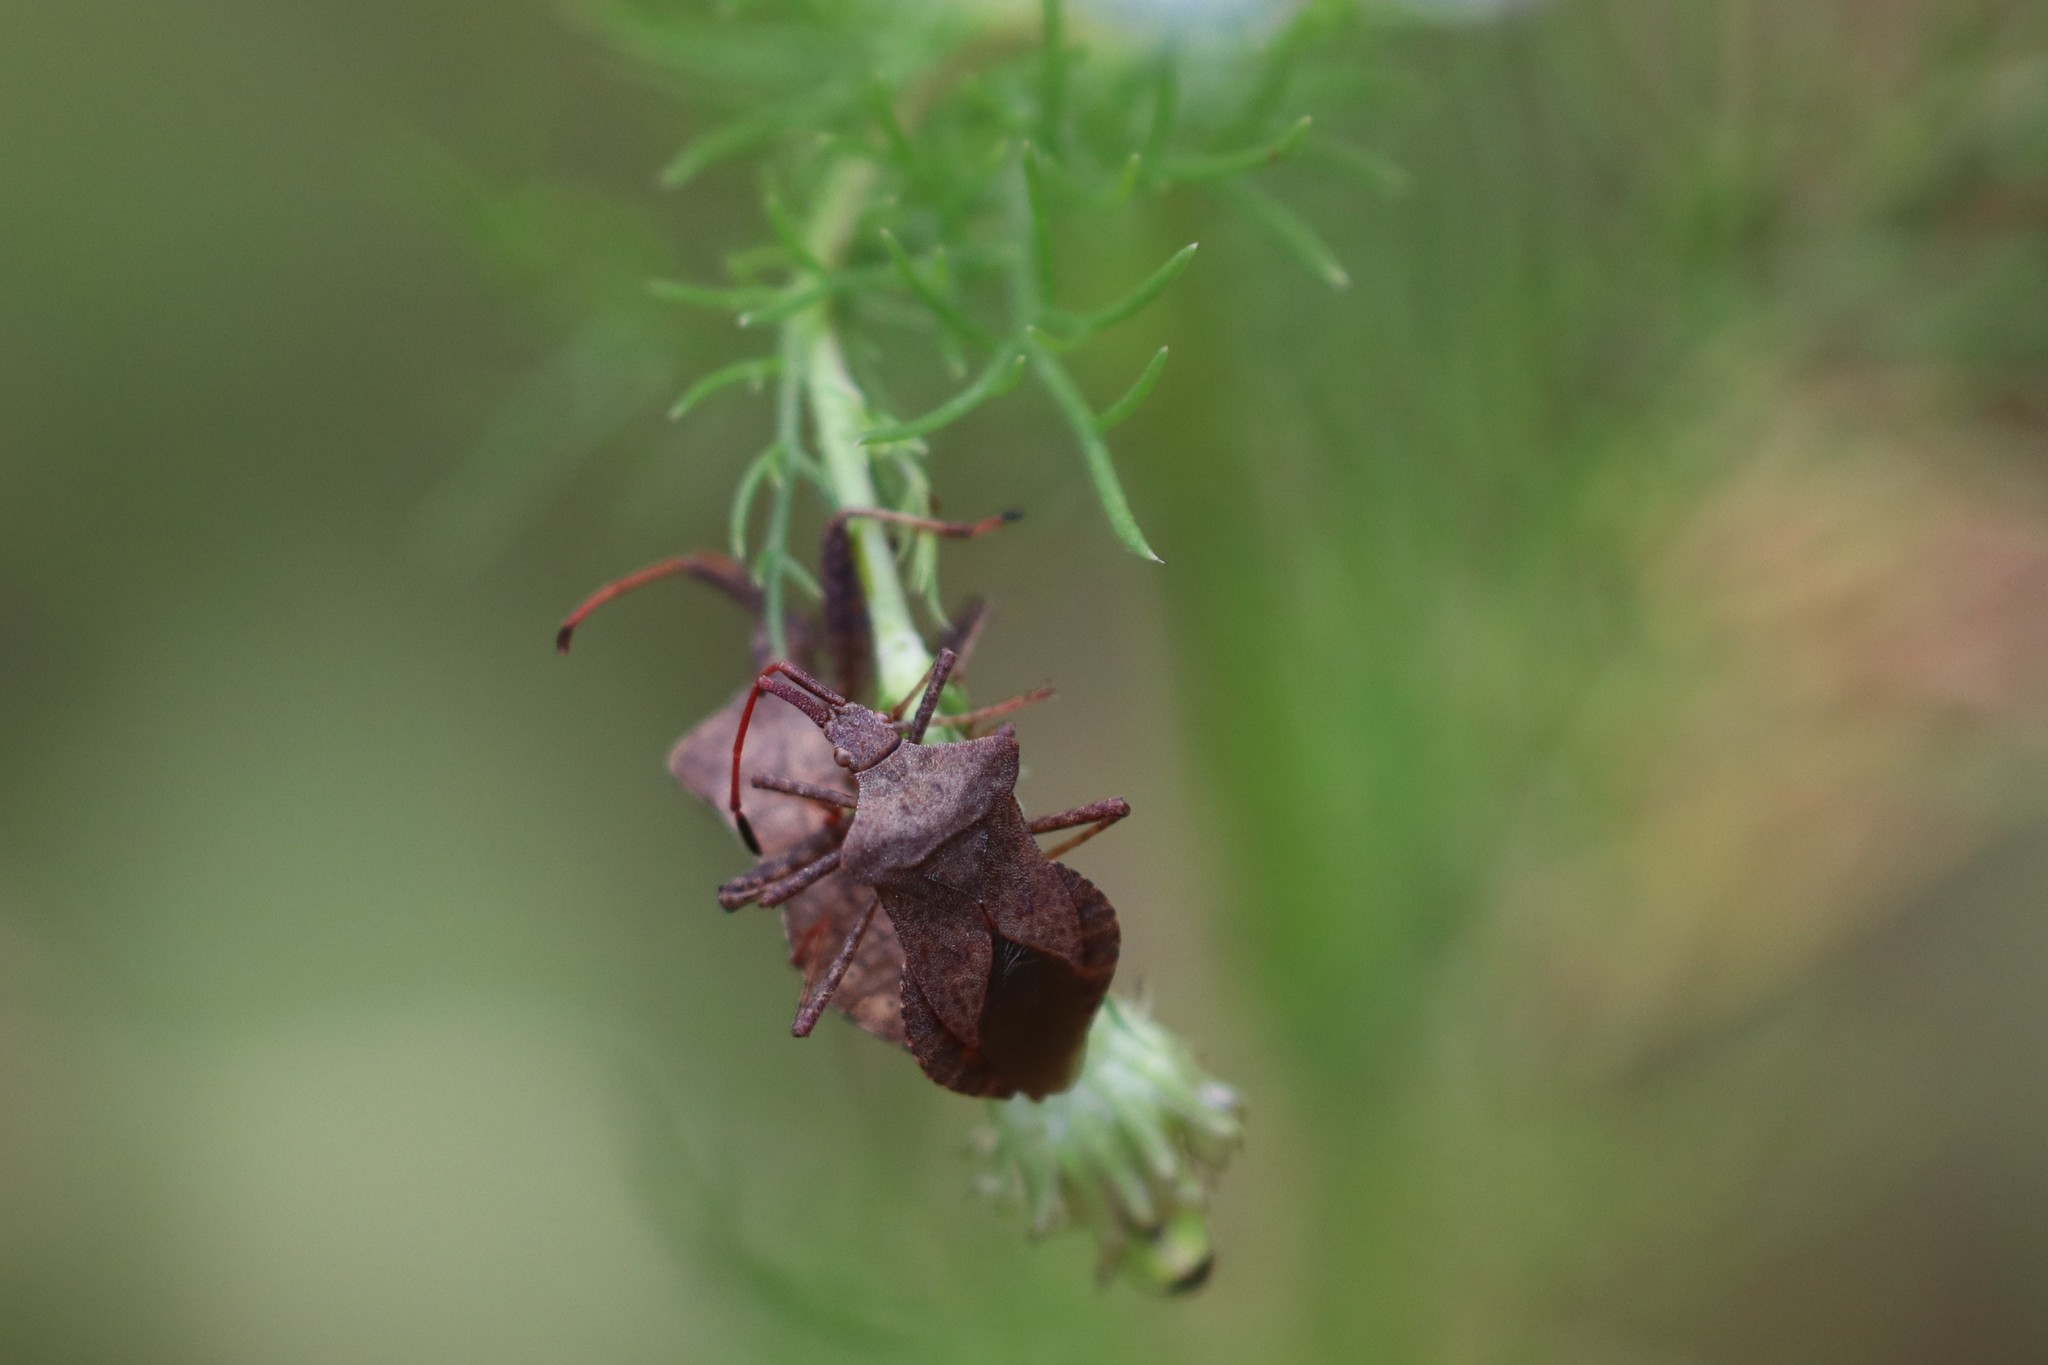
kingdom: Animalia
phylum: Arthropoda
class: Insecta
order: Hemiptera
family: Coreidae
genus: Coreus
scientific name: Coreus marginatus
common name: Dock bug
